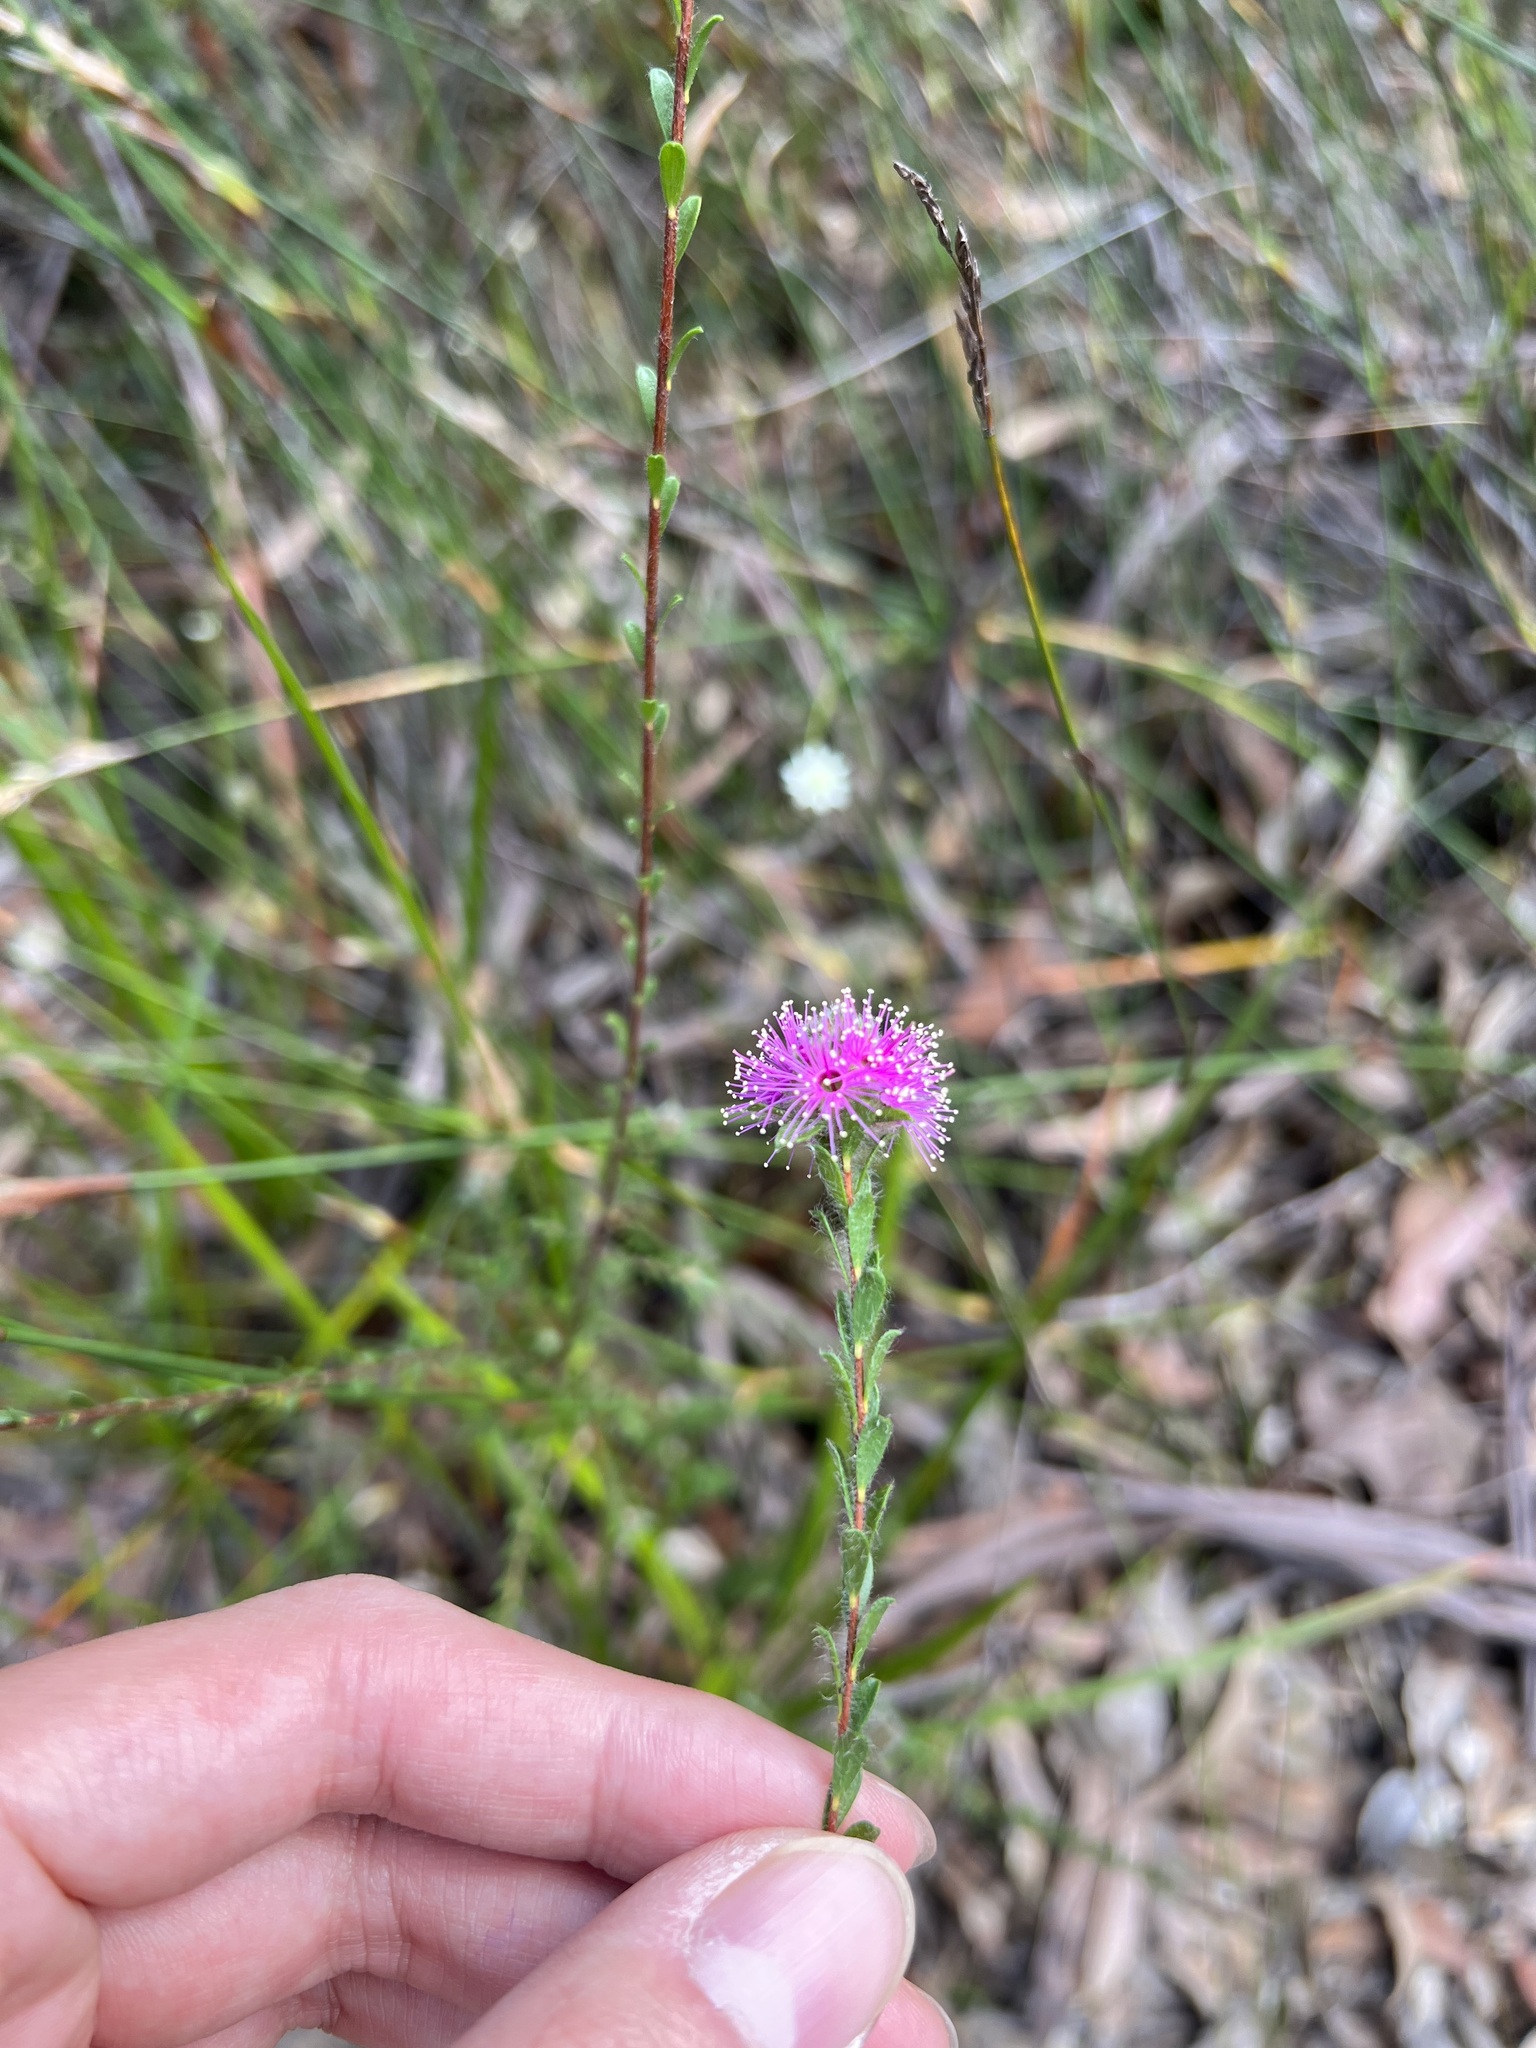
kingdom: Plantae
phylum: Tracheophyta
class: Magnoliopsida
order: Myrtales
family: Myrtaceae
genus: Kunzea
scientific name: Kunzea capitata
